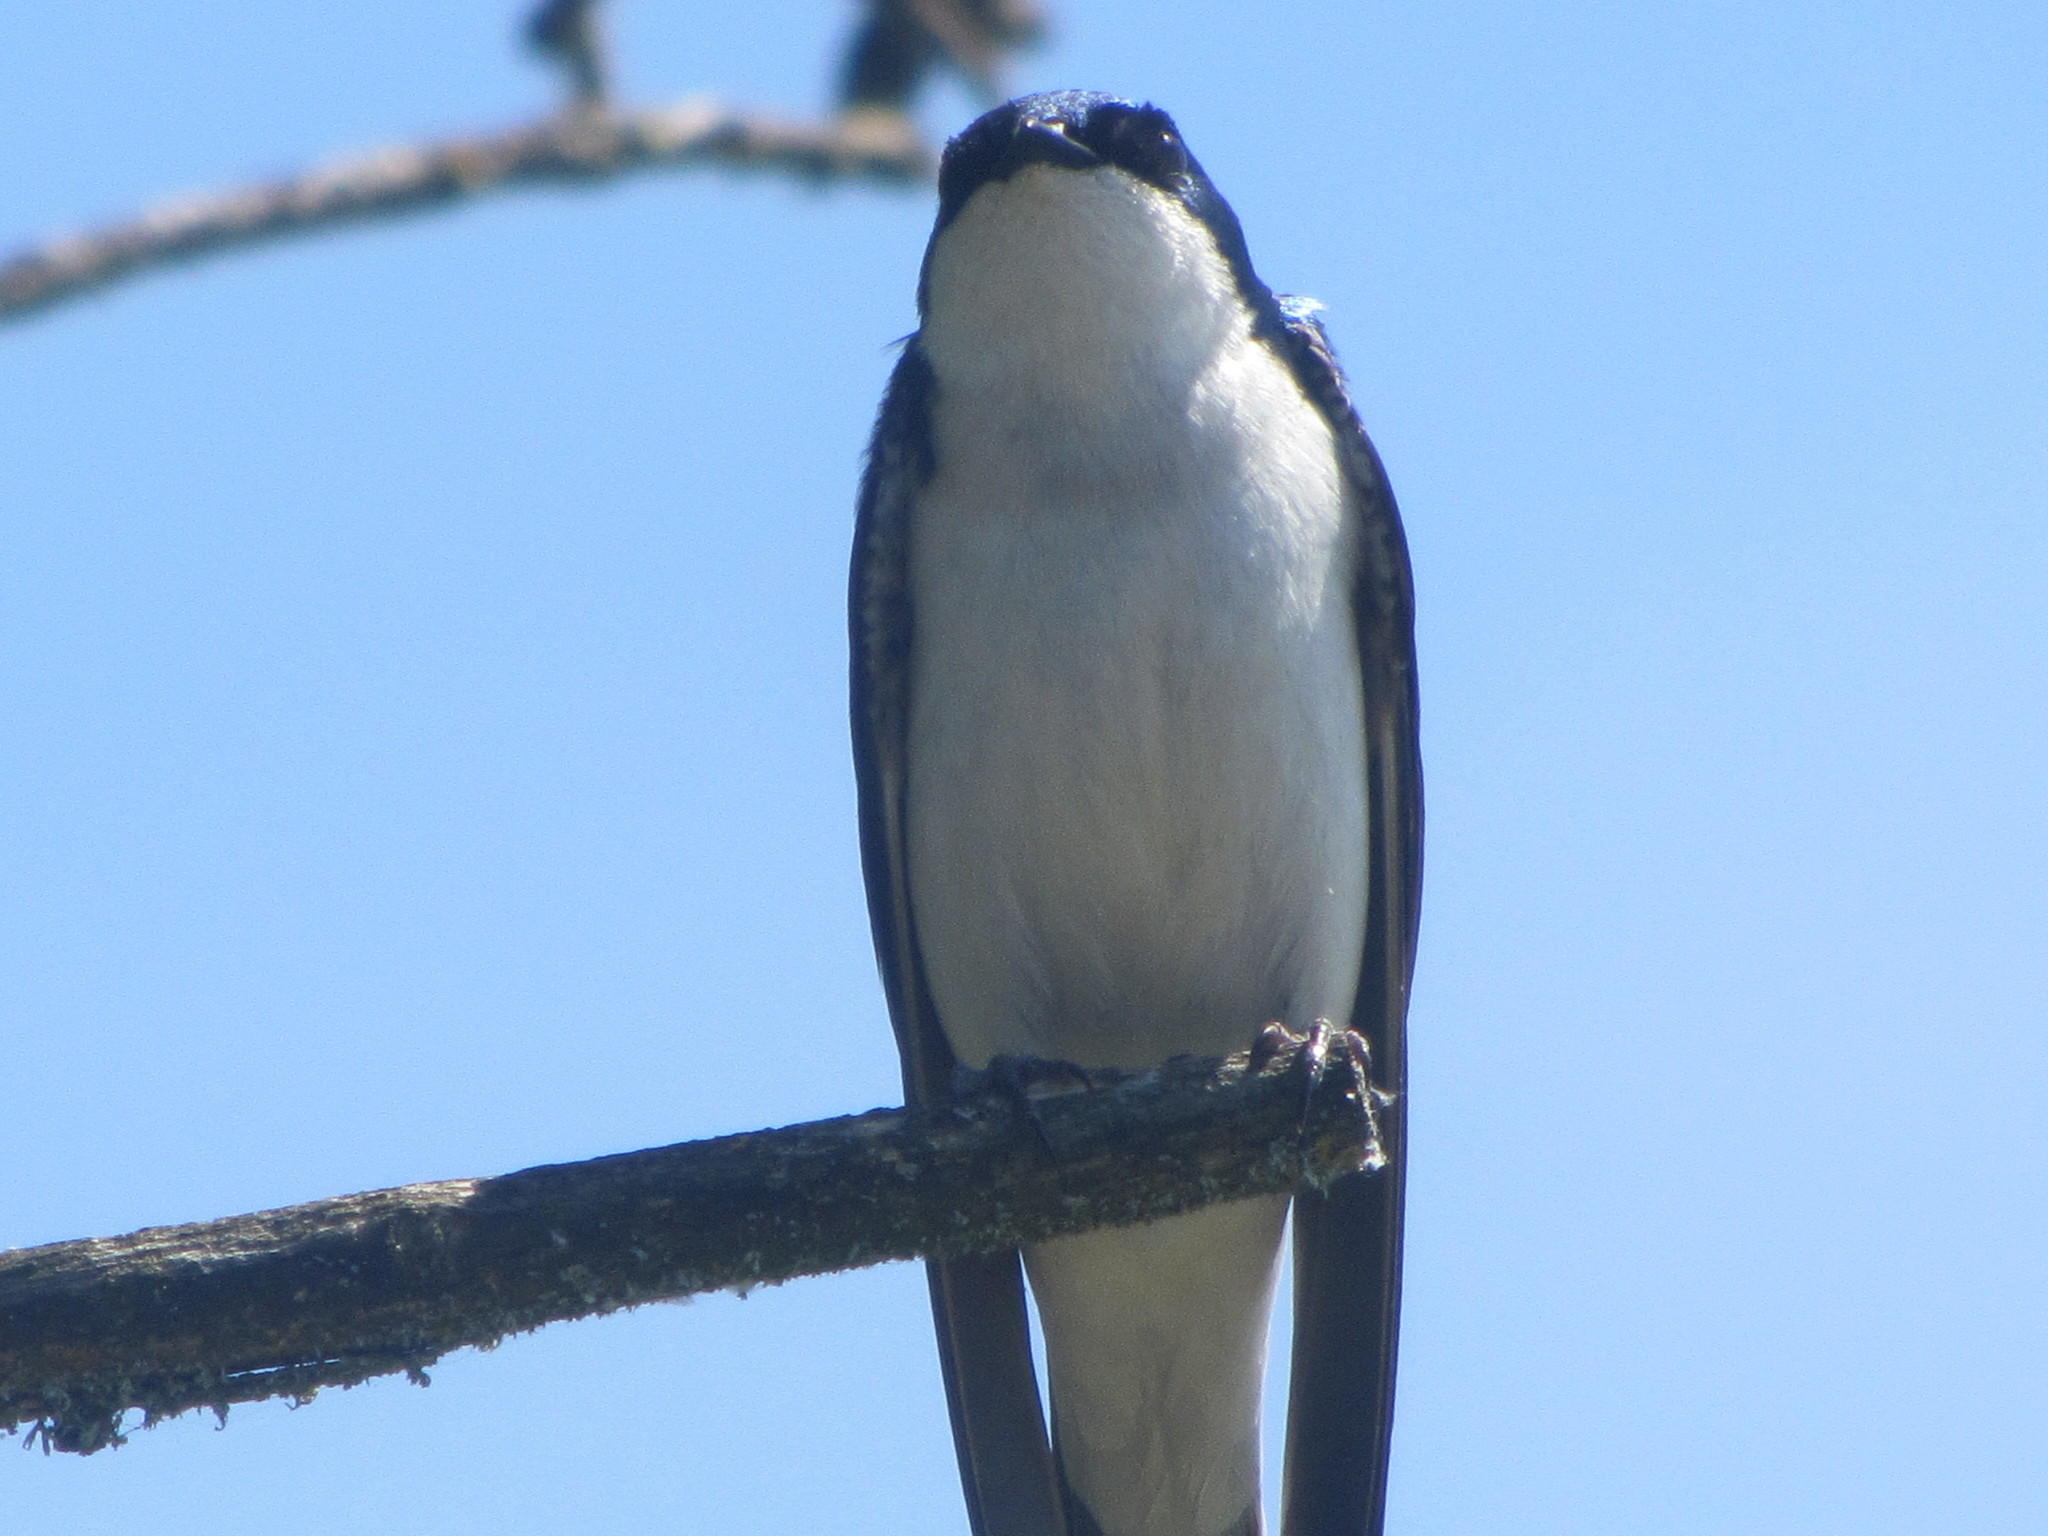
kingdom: Animalia
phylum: Chordata
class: Aves
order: Passeriformes
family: Hirundinidae
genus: Tachycineta
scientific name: Tachycineta bicolor
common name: Tree swallow
